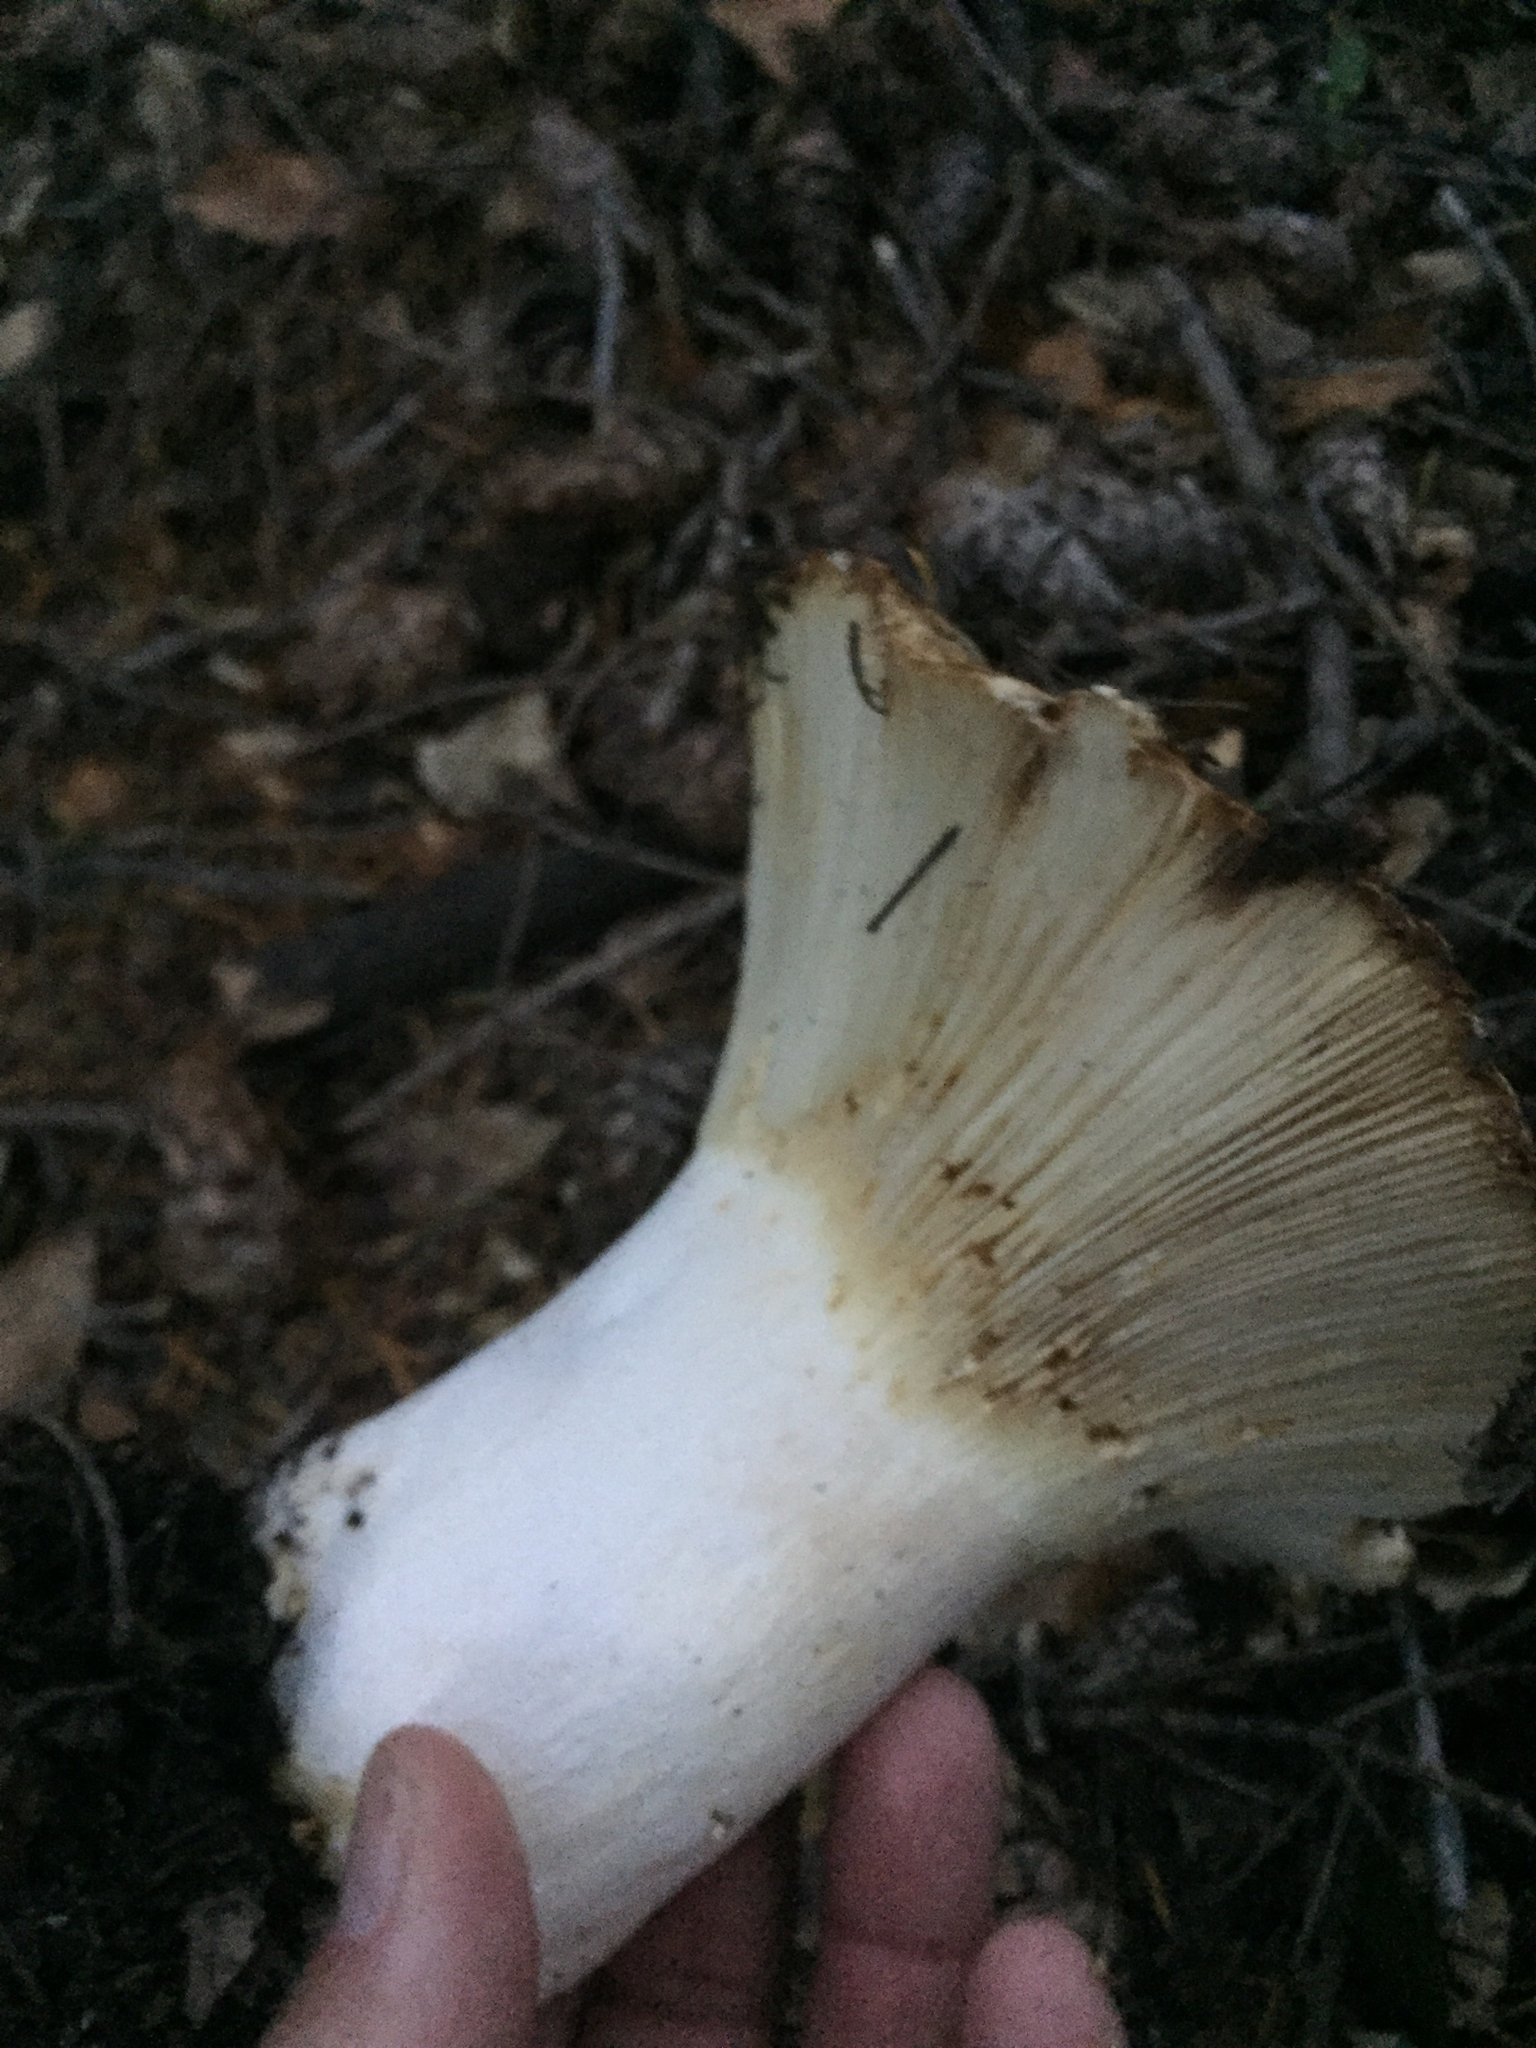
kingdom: Fungi
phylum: Basidiomycota
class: Agaricomycetes
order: Russulales
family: Russulaceae
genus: Russula
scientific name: Russula brevipes
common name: Short-stemmed russula
